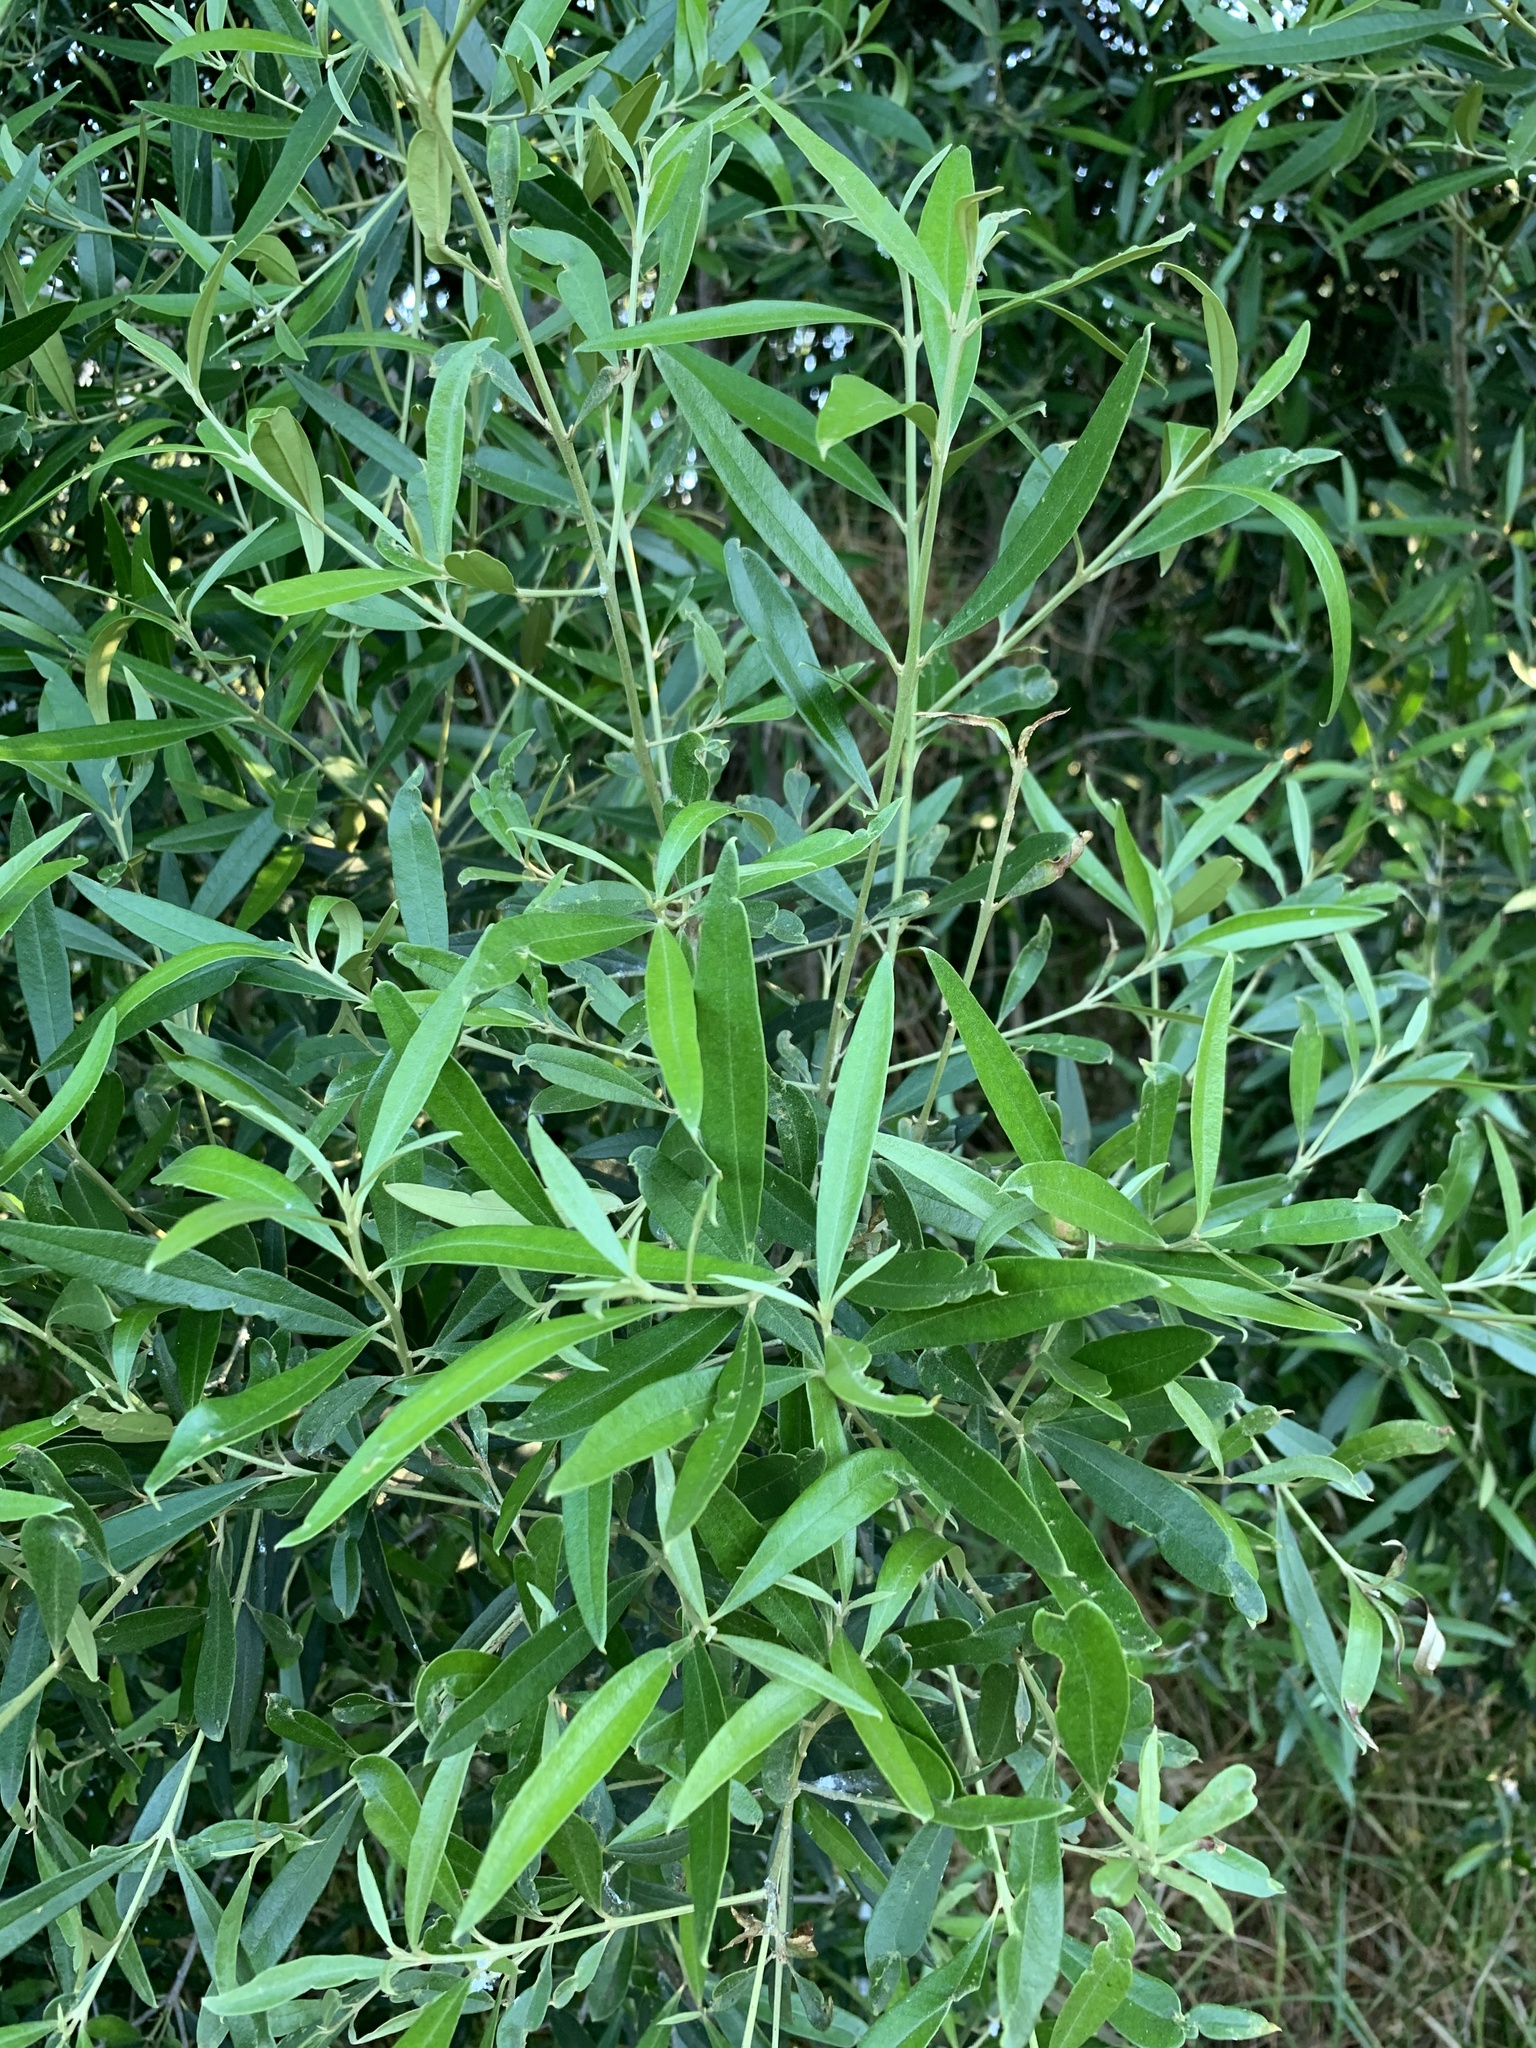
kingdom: Plantae
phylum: Tracheophyta
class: Magnoliopsida
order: Lamiales
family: Oleaceae
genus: Olea
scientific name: Olea europaea
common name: Olive
